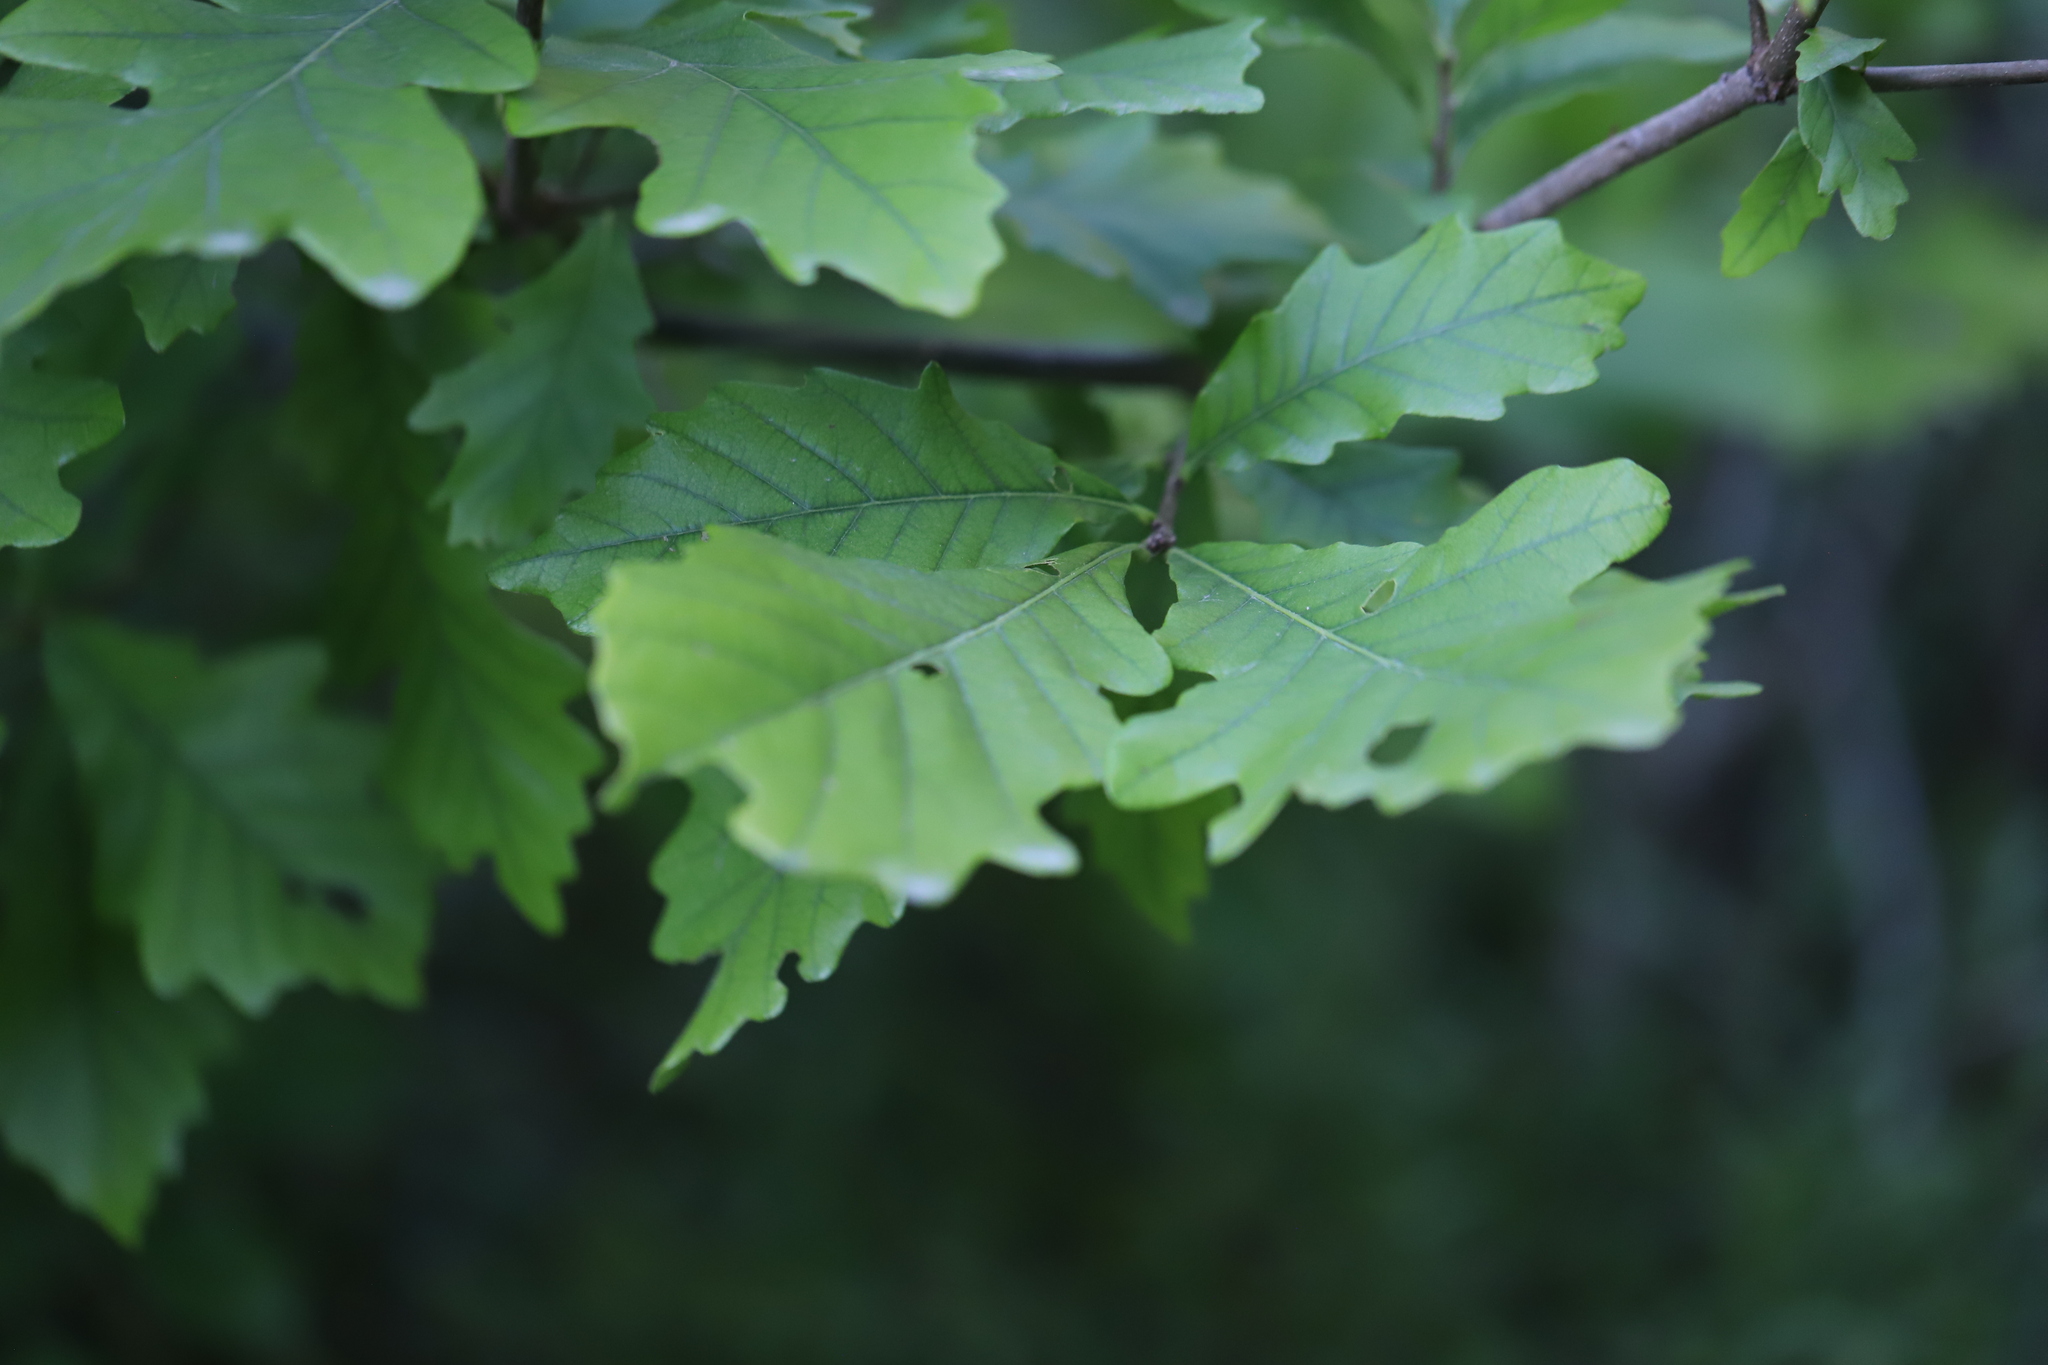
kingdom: Plantae
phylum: Tracheophyta
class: Magnoliopsida
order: Fagales
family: Fagaceae
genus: Quercus
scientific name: Quercus bicolor
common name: Swamp white oak
